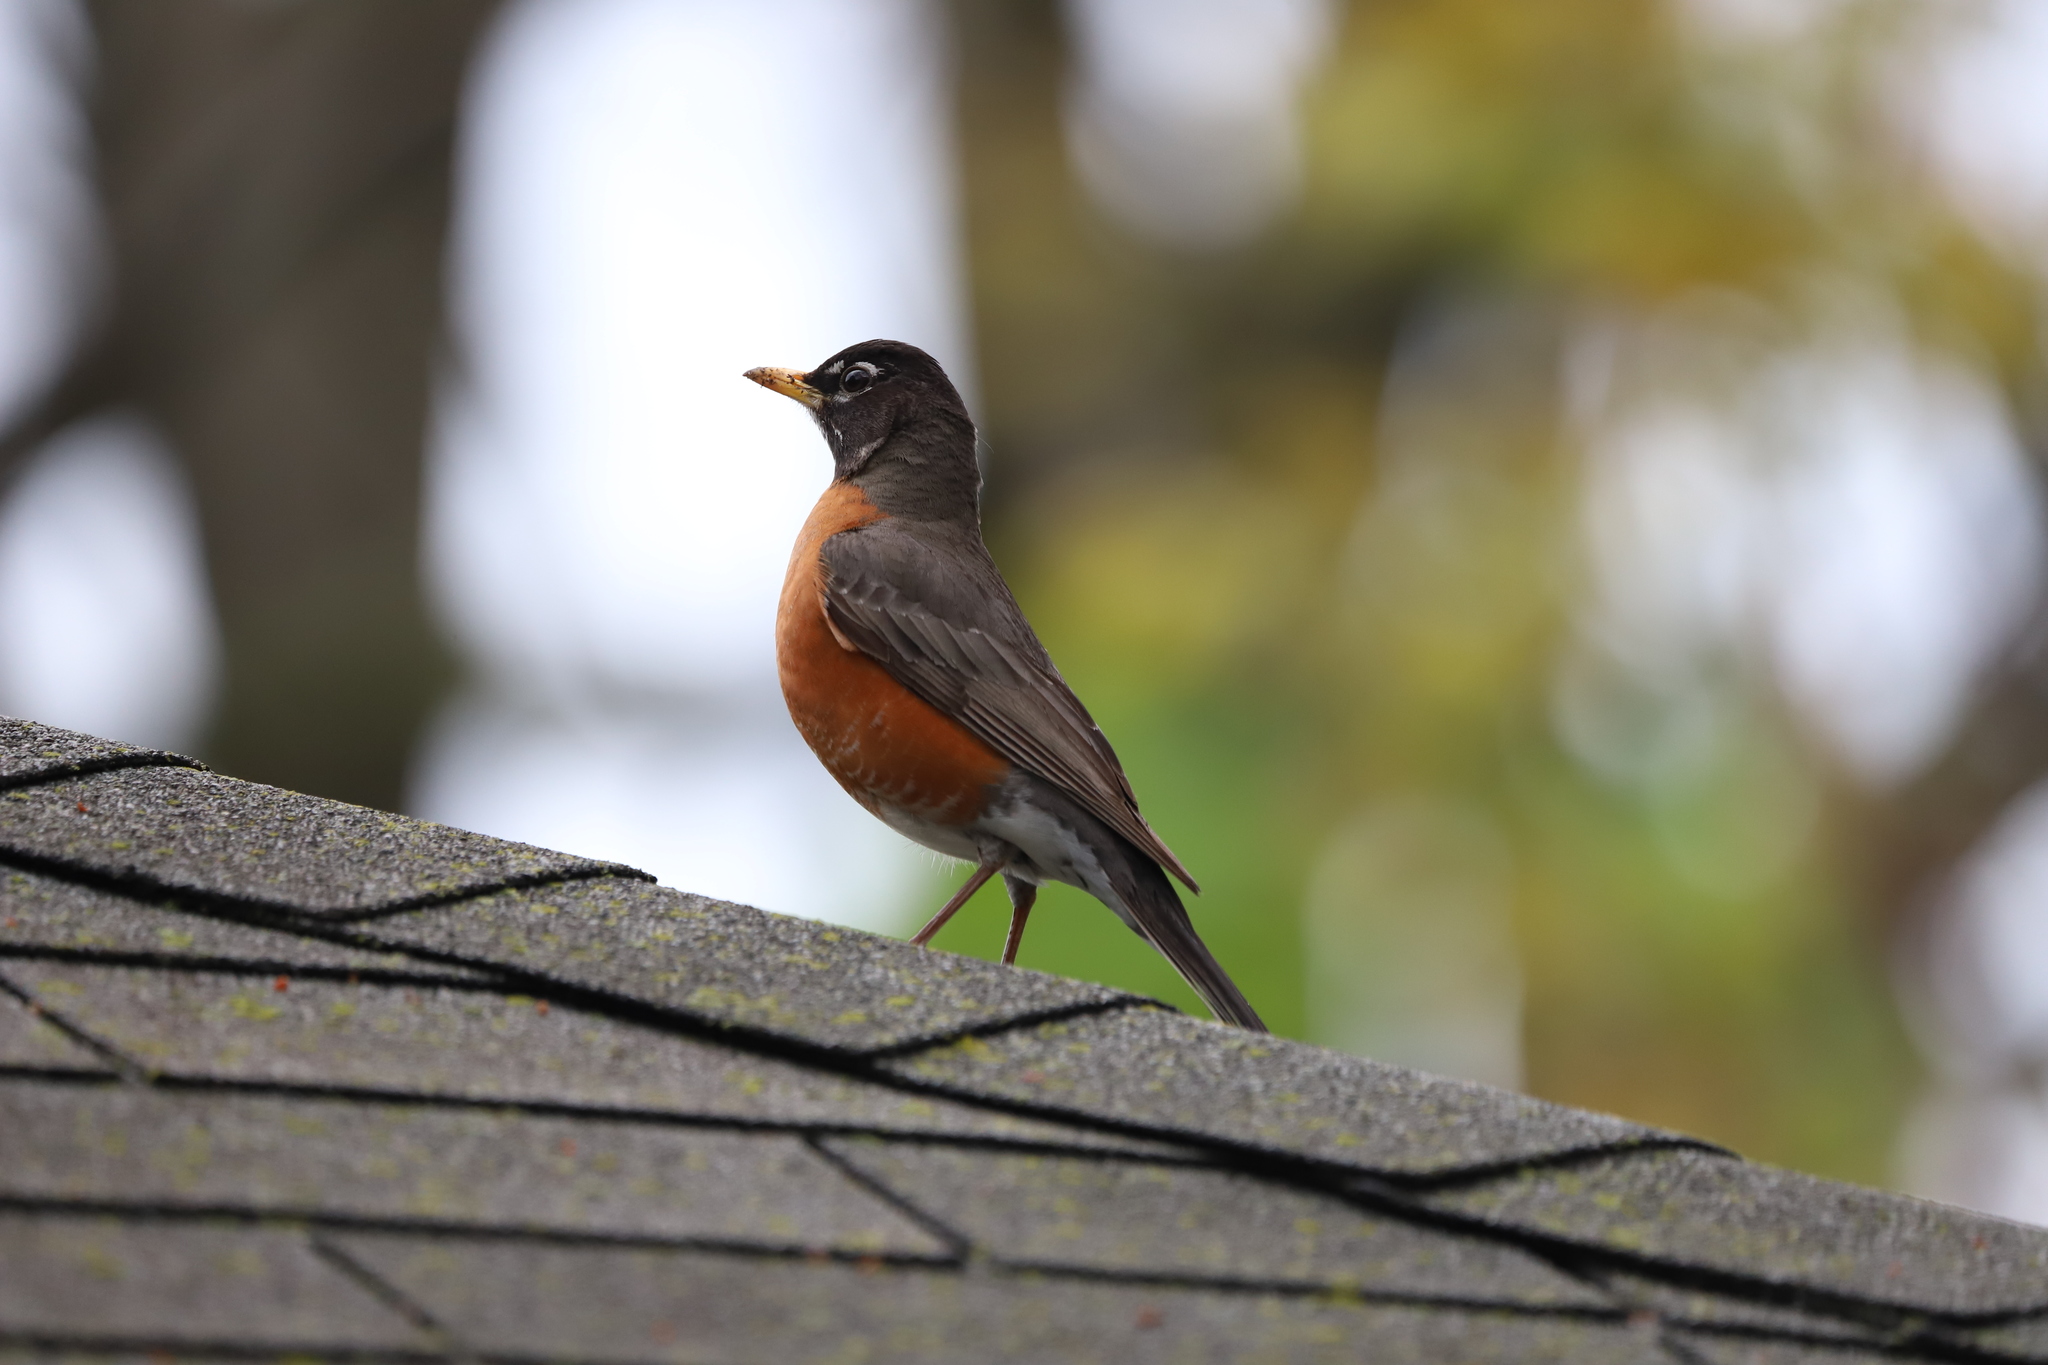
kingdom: Animalia
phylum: Chordata
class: Aves
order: Passeriformes
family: Turdidae
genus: Turdus
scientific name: Turdus migratorius
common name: American robin
